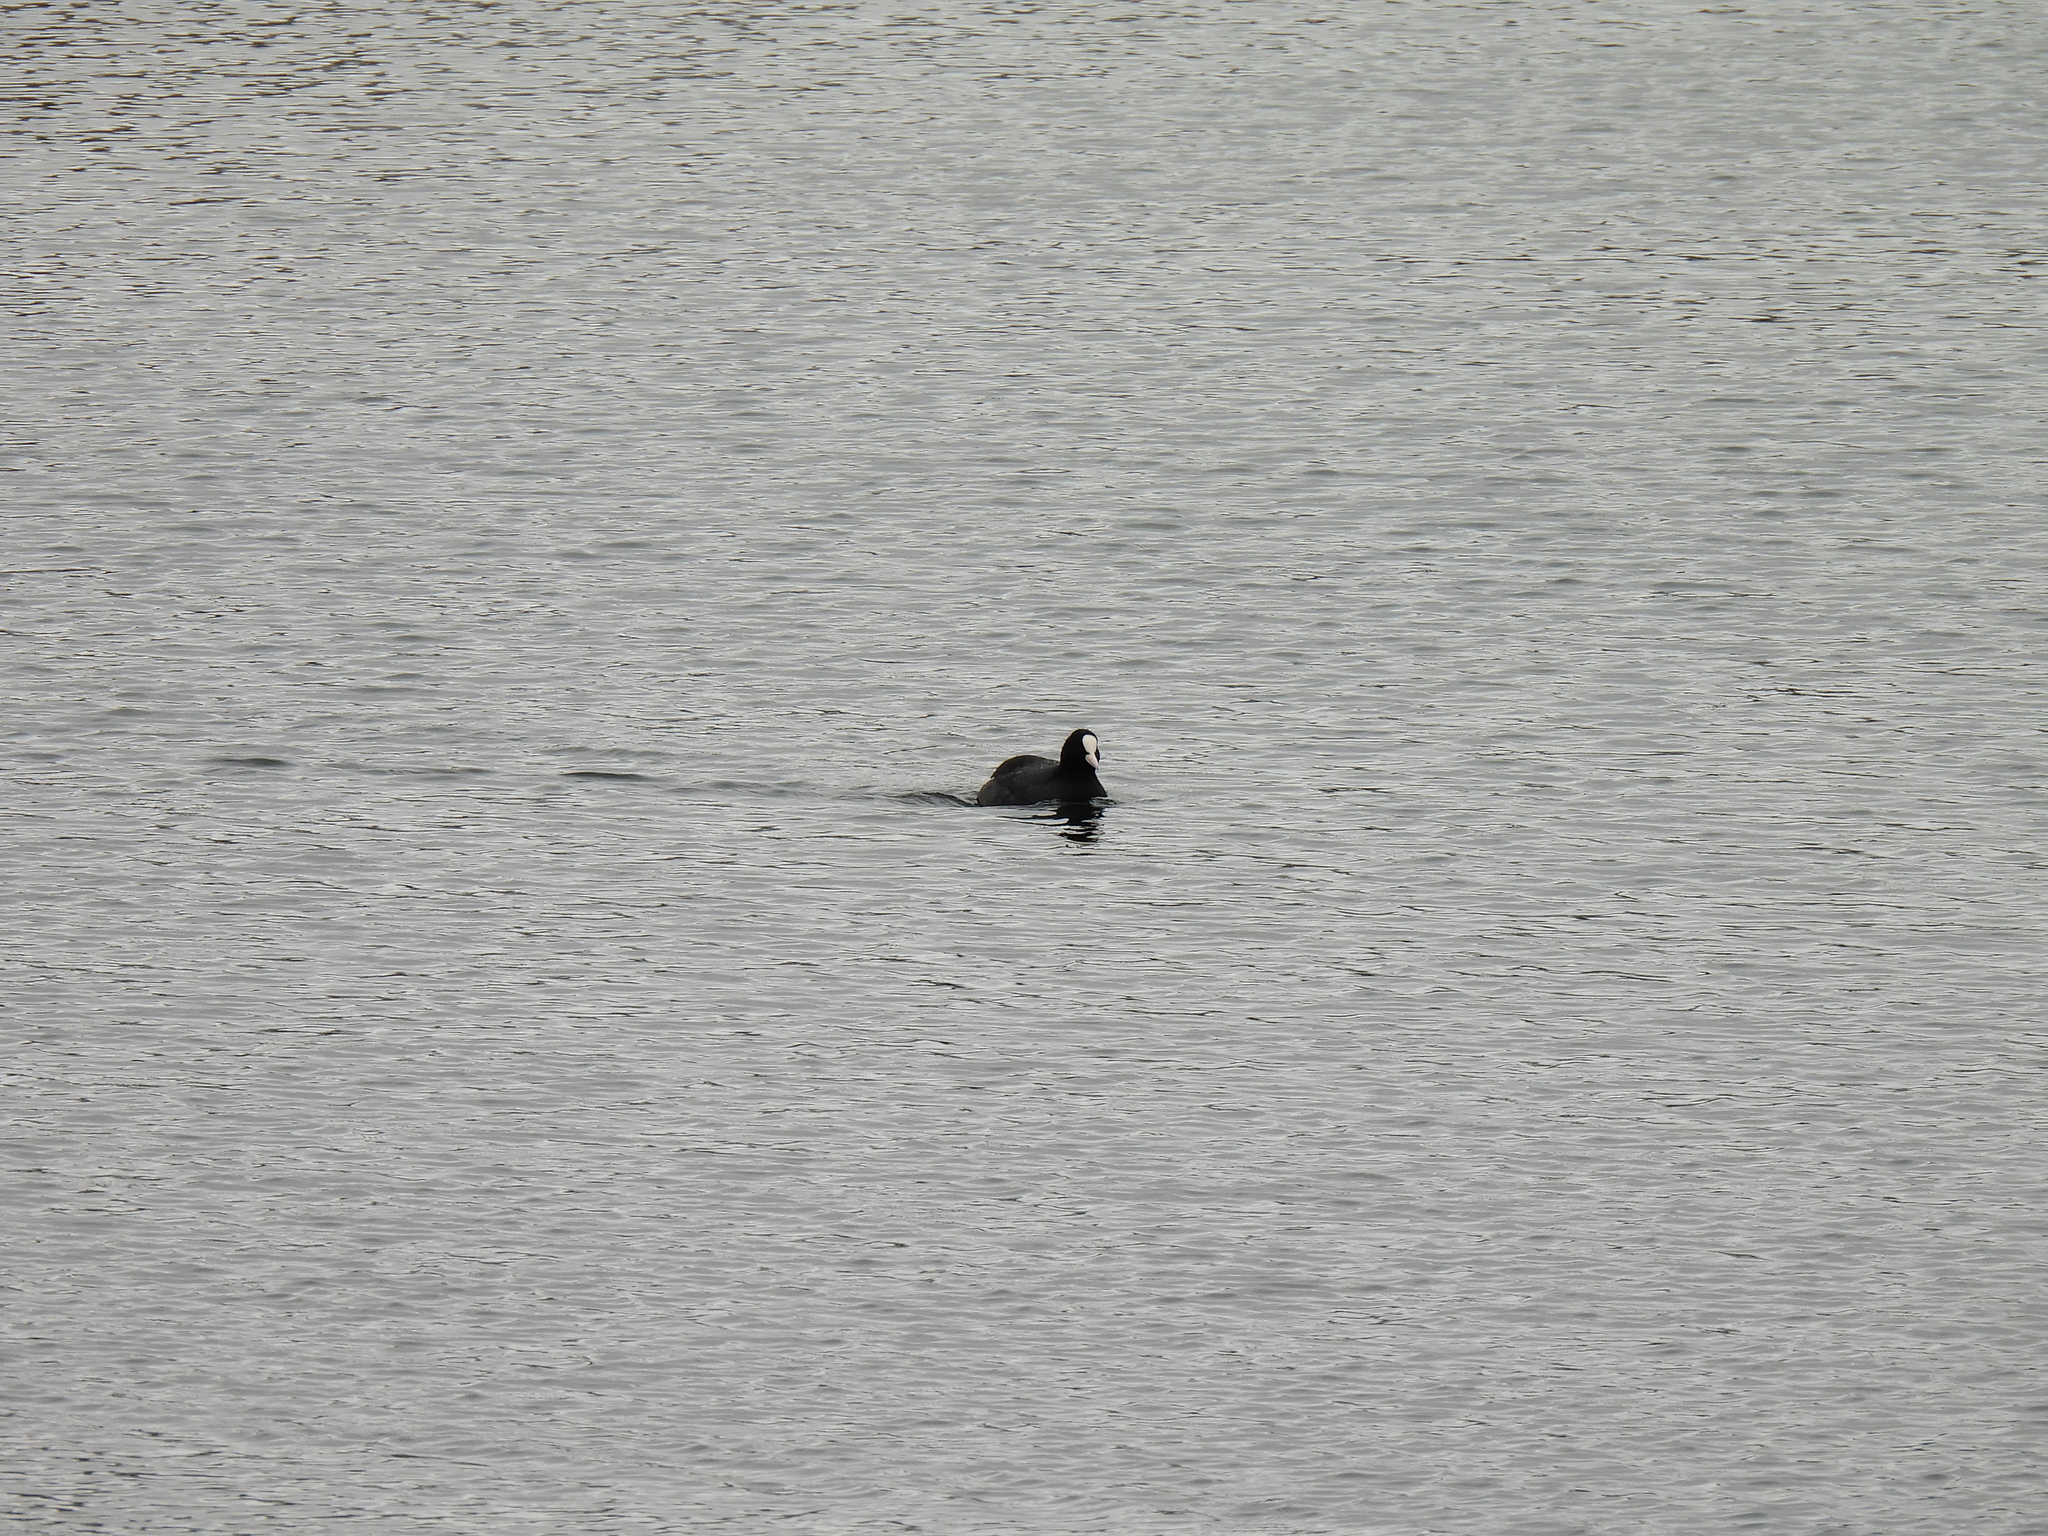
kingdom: Animalia
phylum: Chordata
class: Aves
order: Gruiformes
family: Rallidae
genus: Fulica
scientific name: Fulica atra
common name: Eurasian coot
